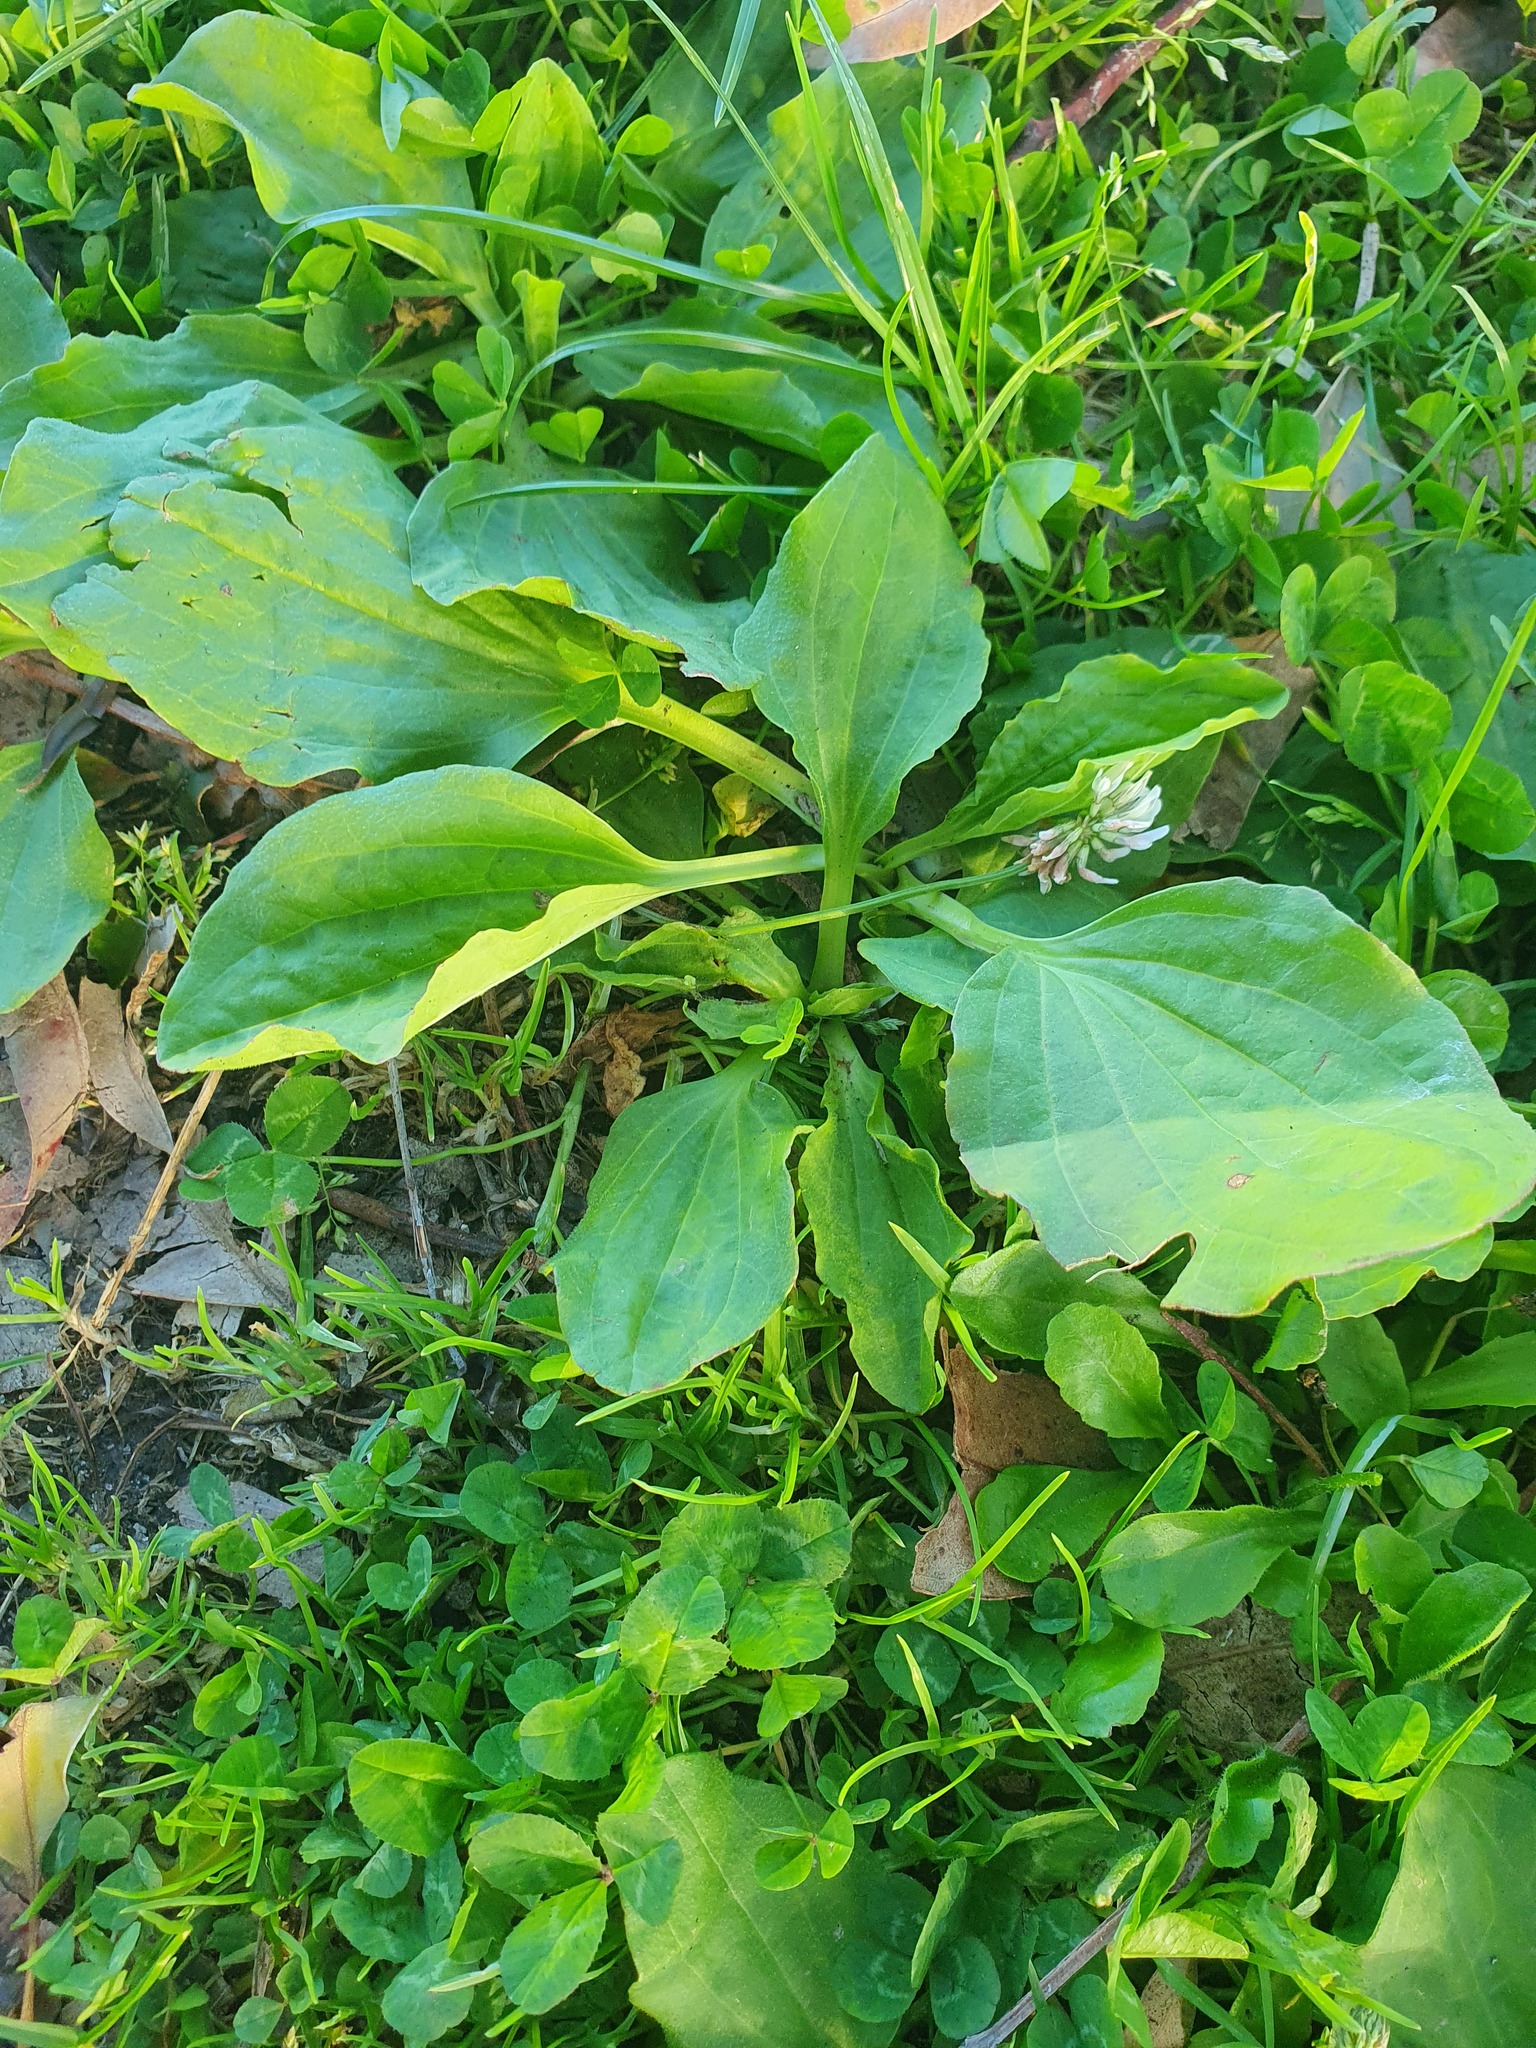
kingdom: Plantae
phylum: Tracheophyta
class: Magnoliopsida
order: Lamiales
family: Plantaginaceae
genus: Plantago
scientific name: Plantago major
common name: Common plantain
